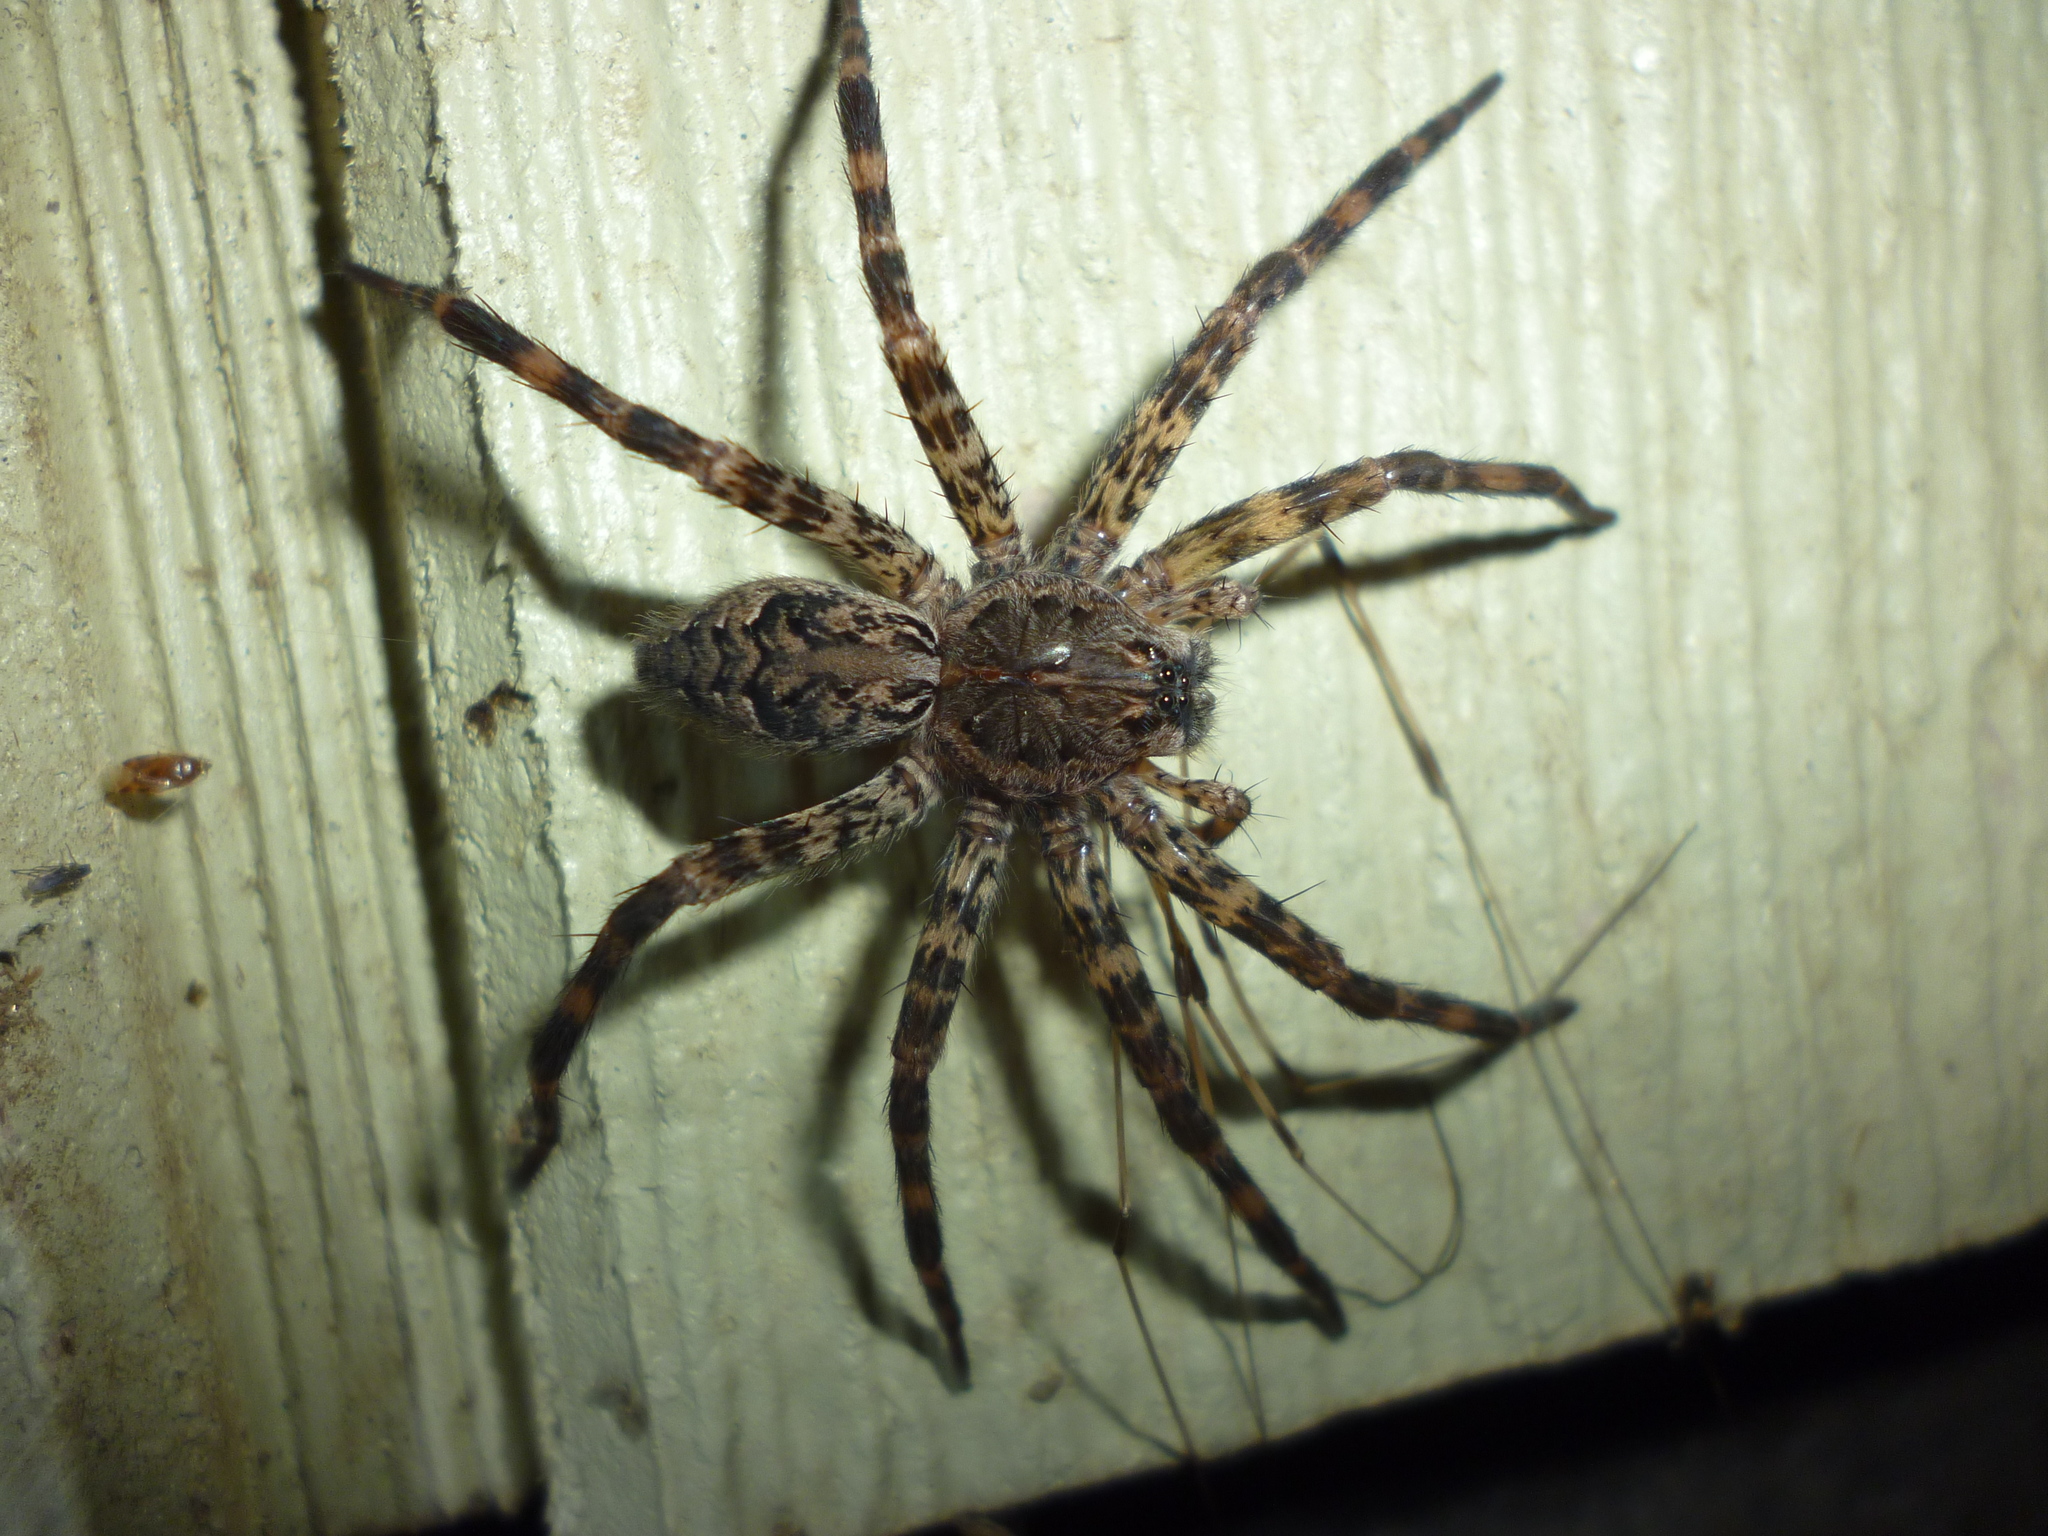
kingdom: Animalia
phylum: Arthropoda
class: Arachnida
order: Araneae
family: Pisauridae
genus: Dolomedes
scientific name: Dolomedes tenebrosus
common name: Dark fishing spider
